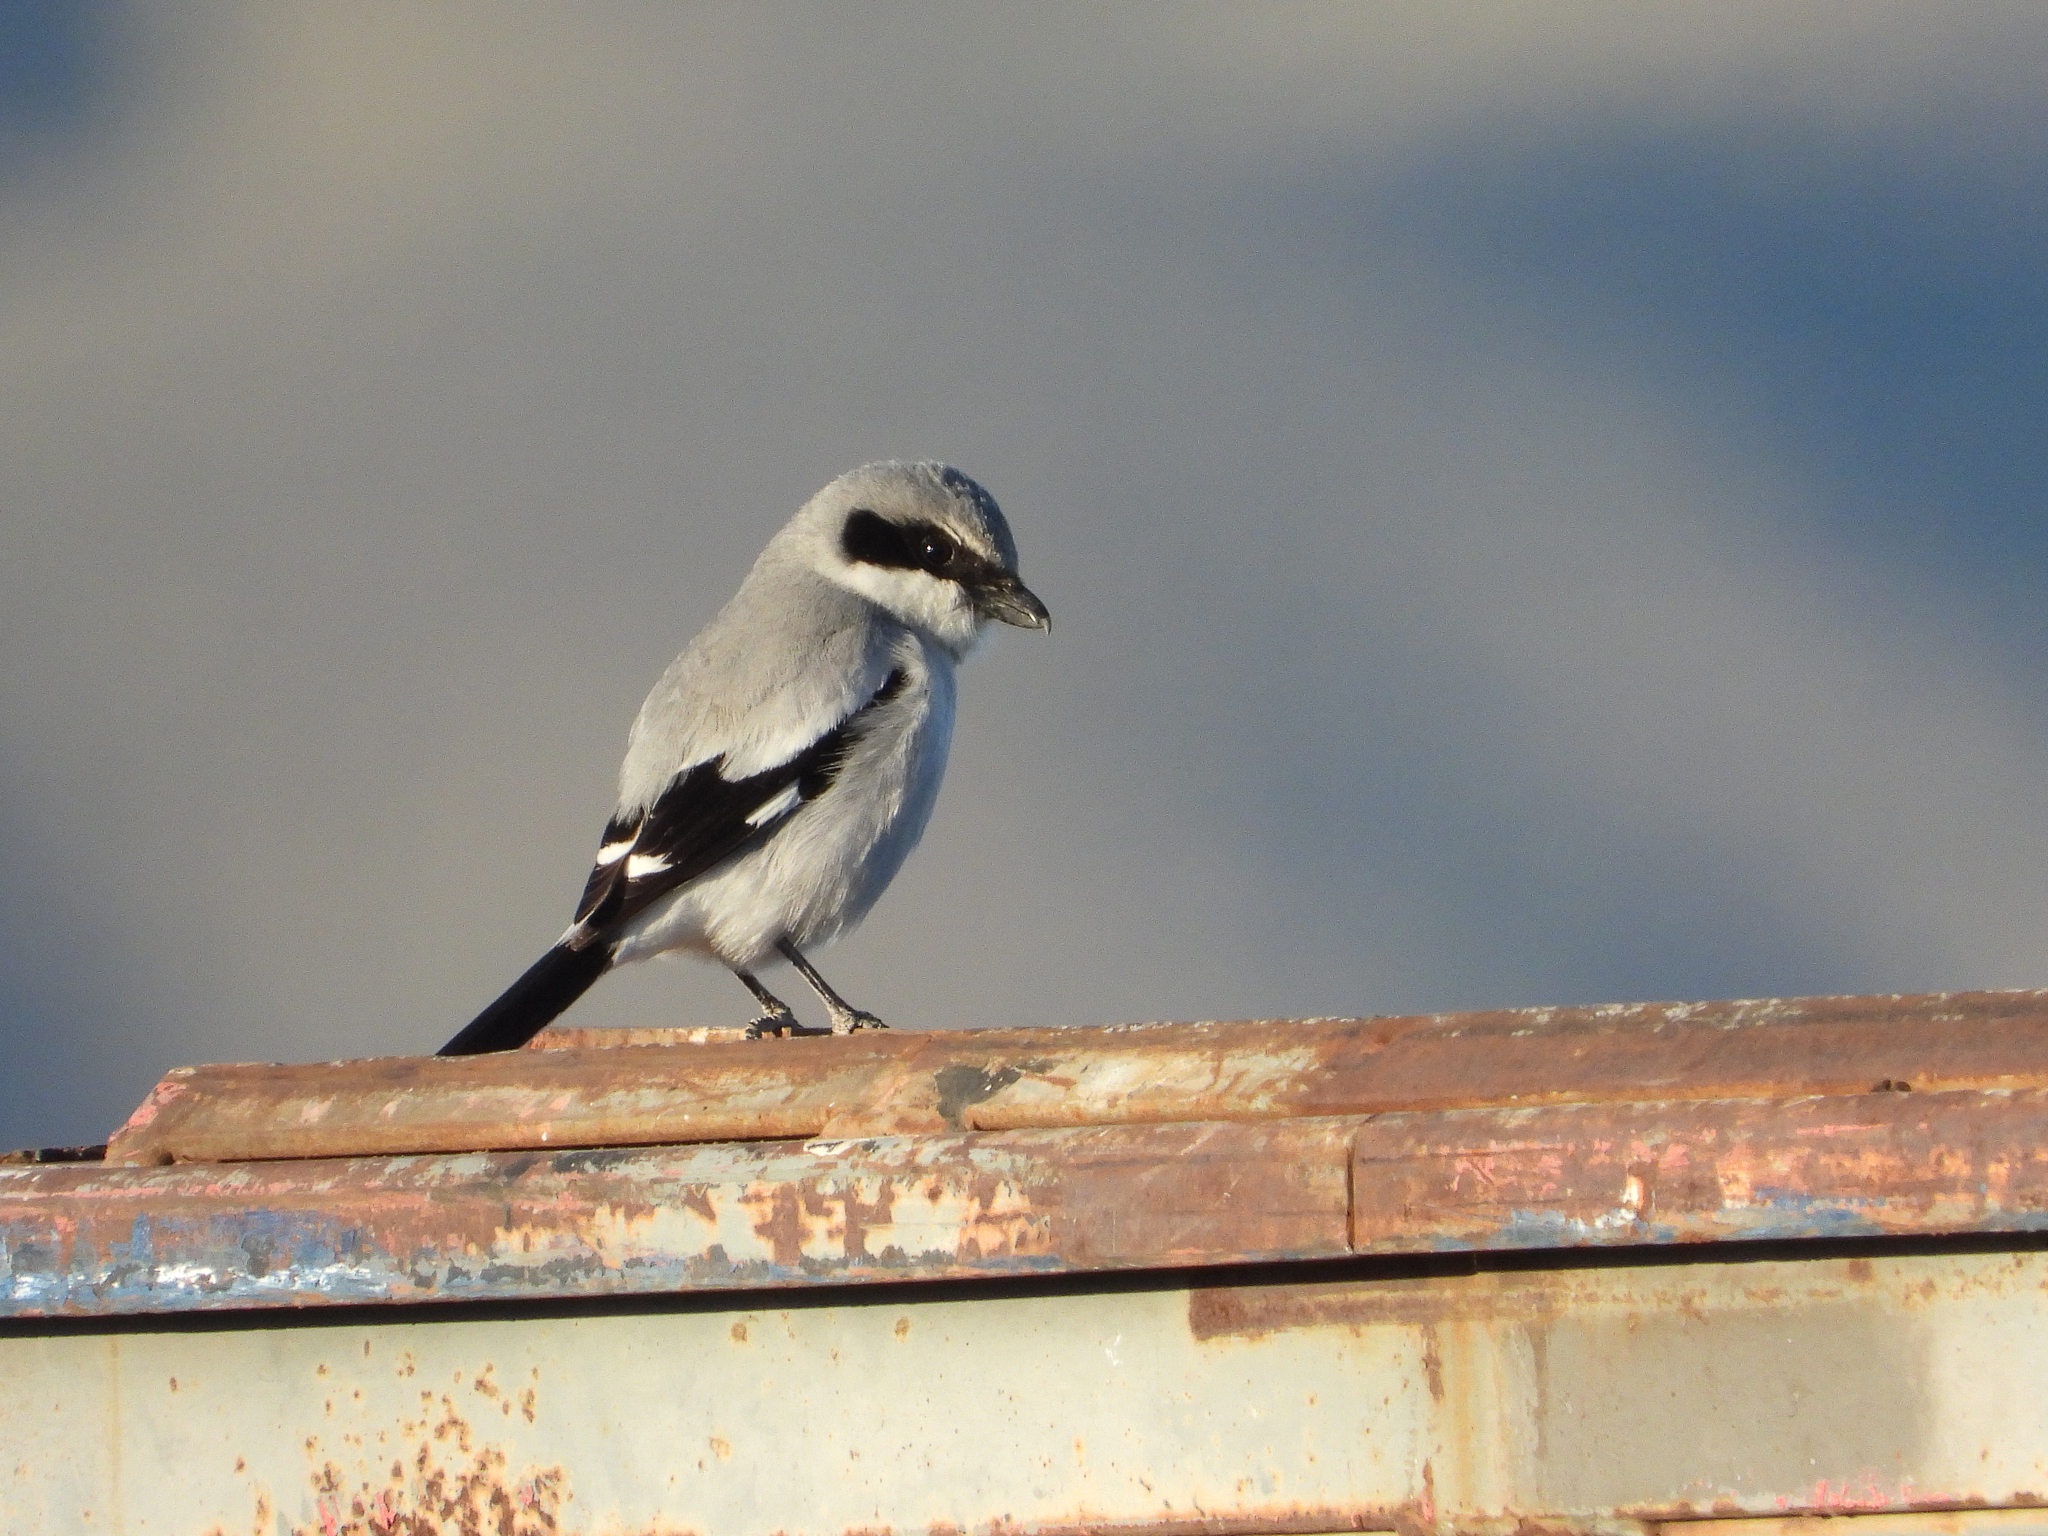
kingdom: Animalia
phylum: Chordata
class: Aves
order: Passeriformes
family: Laniidae
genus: Lanius
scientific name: Lanius ludovicianus
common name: Loggerhead shrike
